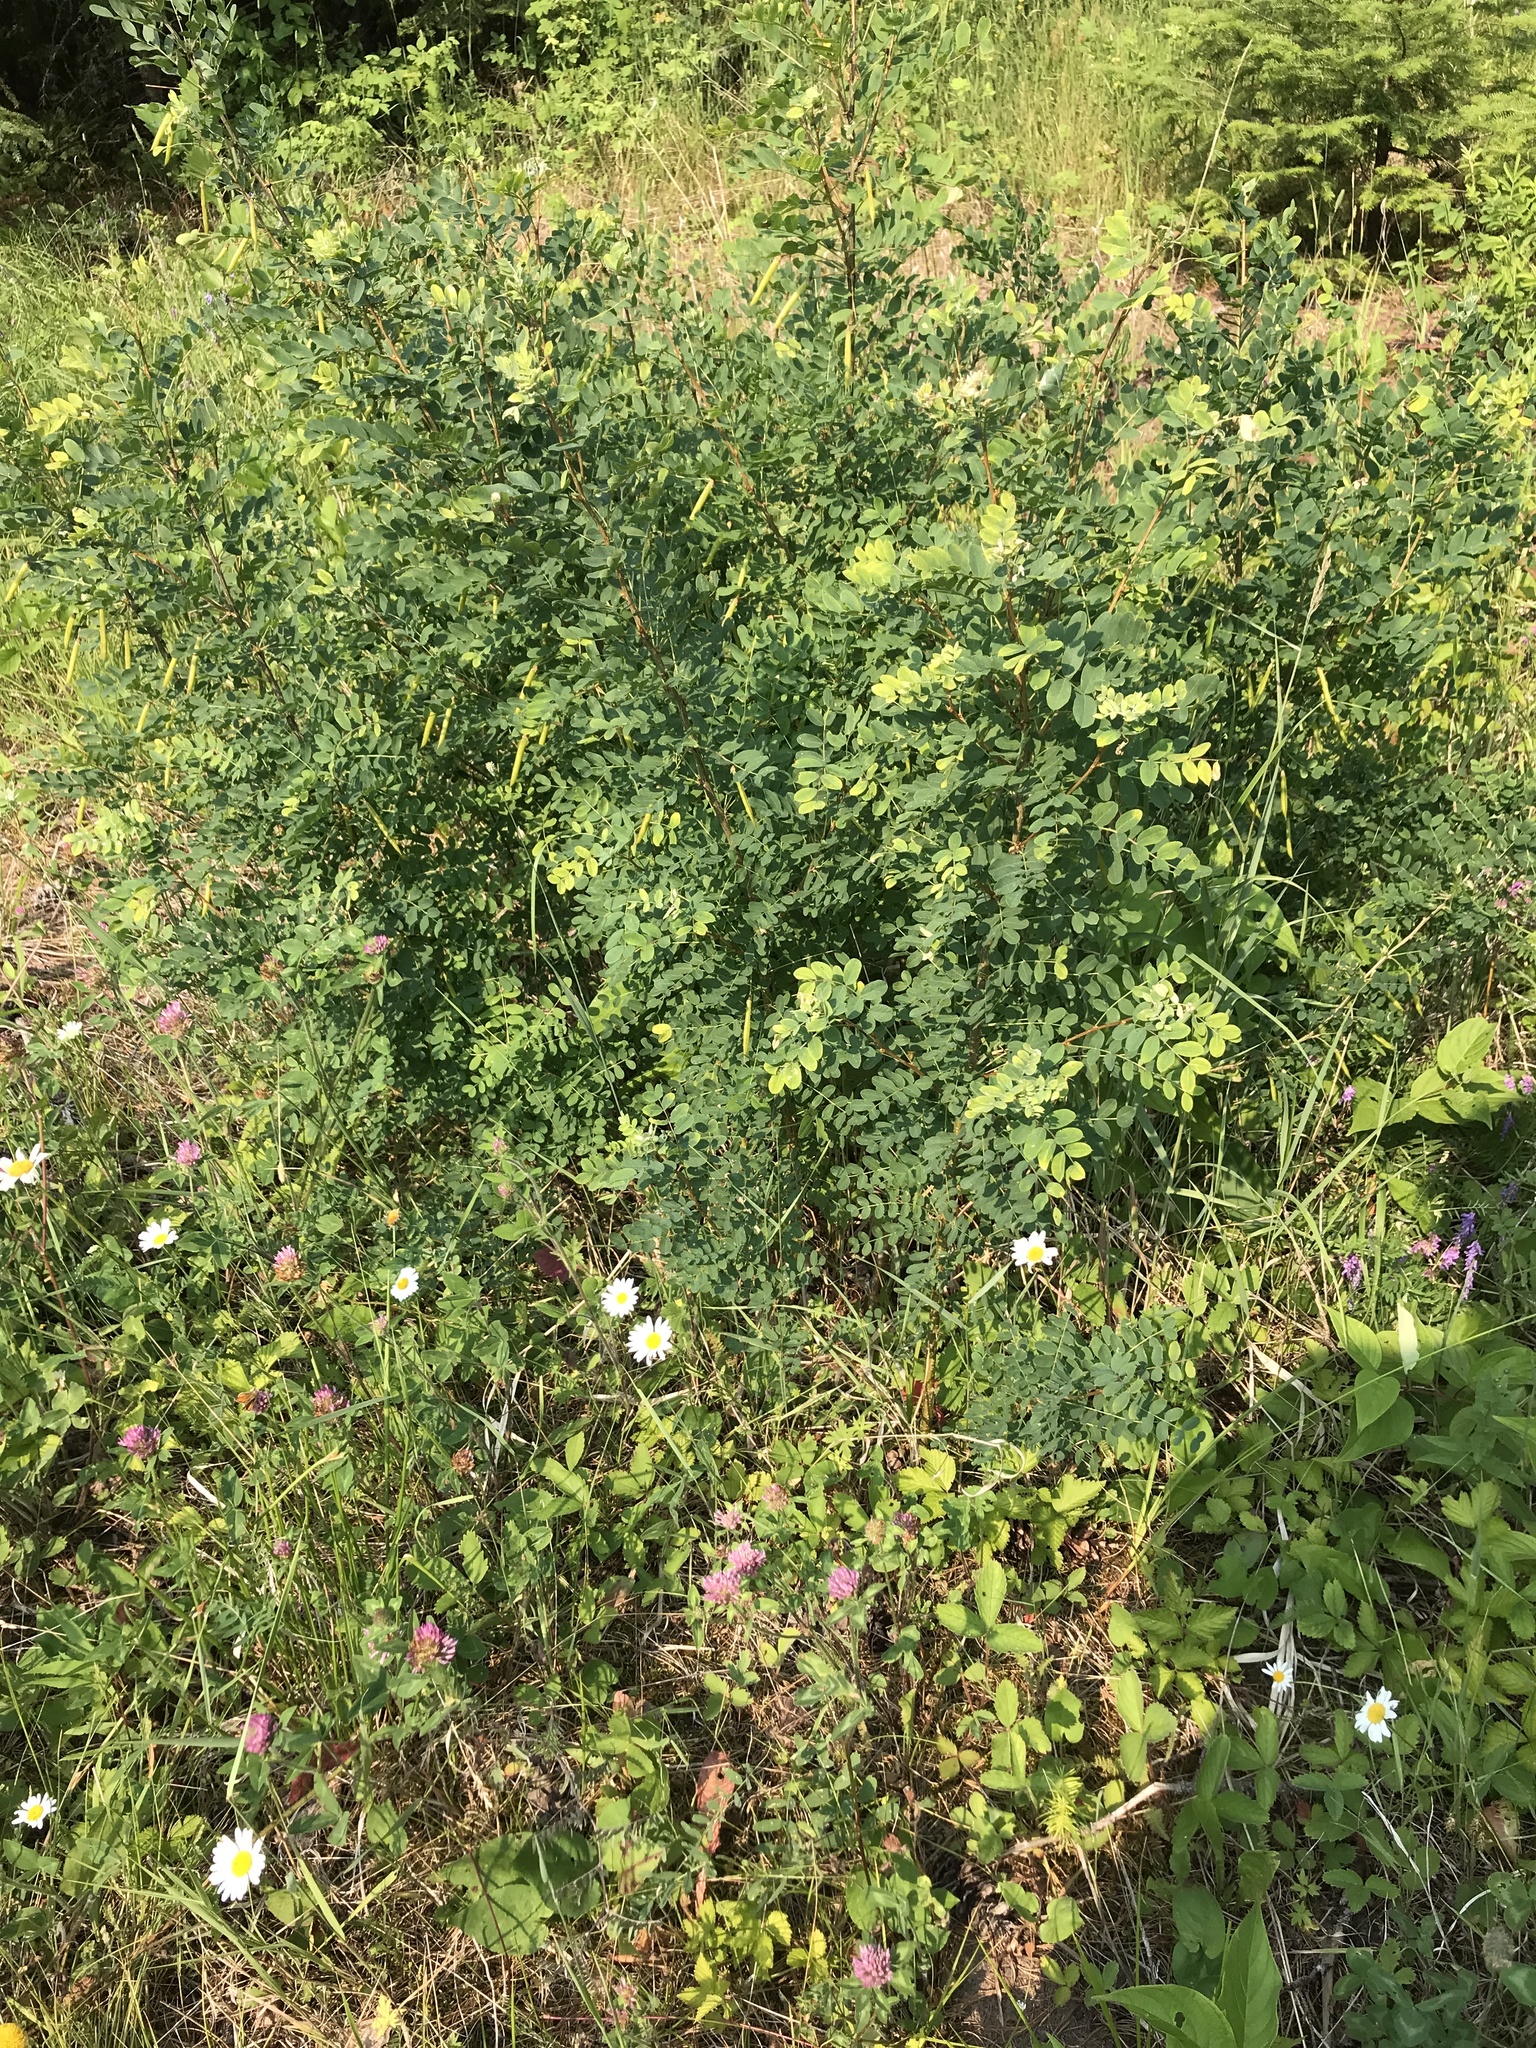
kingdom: Plantae
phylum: Tracheophyta
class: Magnoliopsida
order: Fabales
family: Fabaceae
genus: Caragana
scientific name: Caragana arborescens
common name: Siberian peashrub
